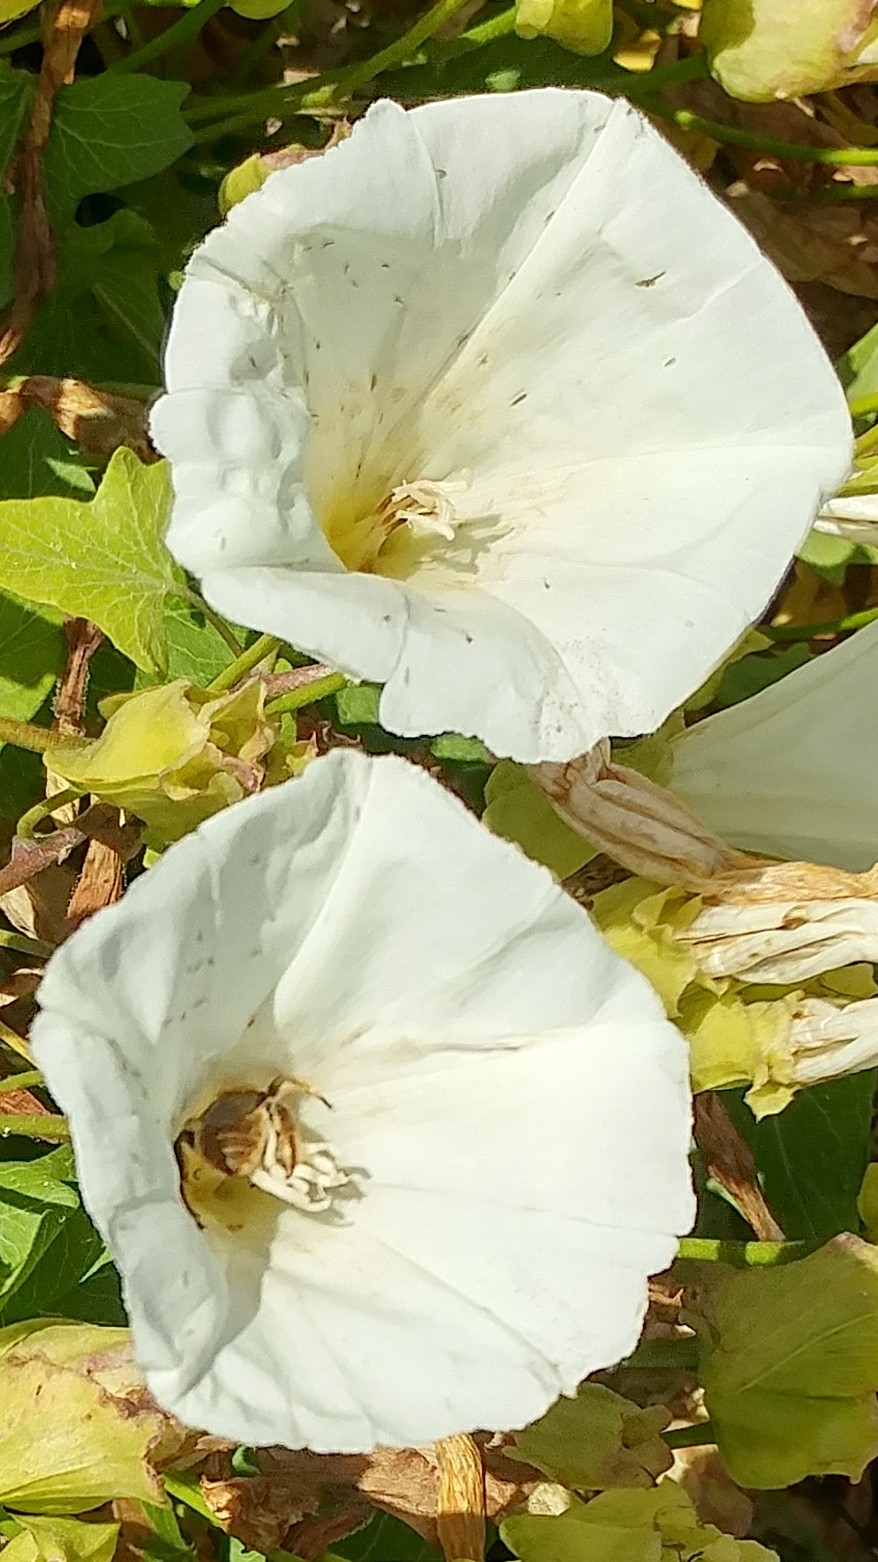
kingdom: Animalia
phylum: Arthropoda
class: Insecta
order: Hymenoptera
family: Apidae
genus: Diadasia
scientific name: Diadasia
